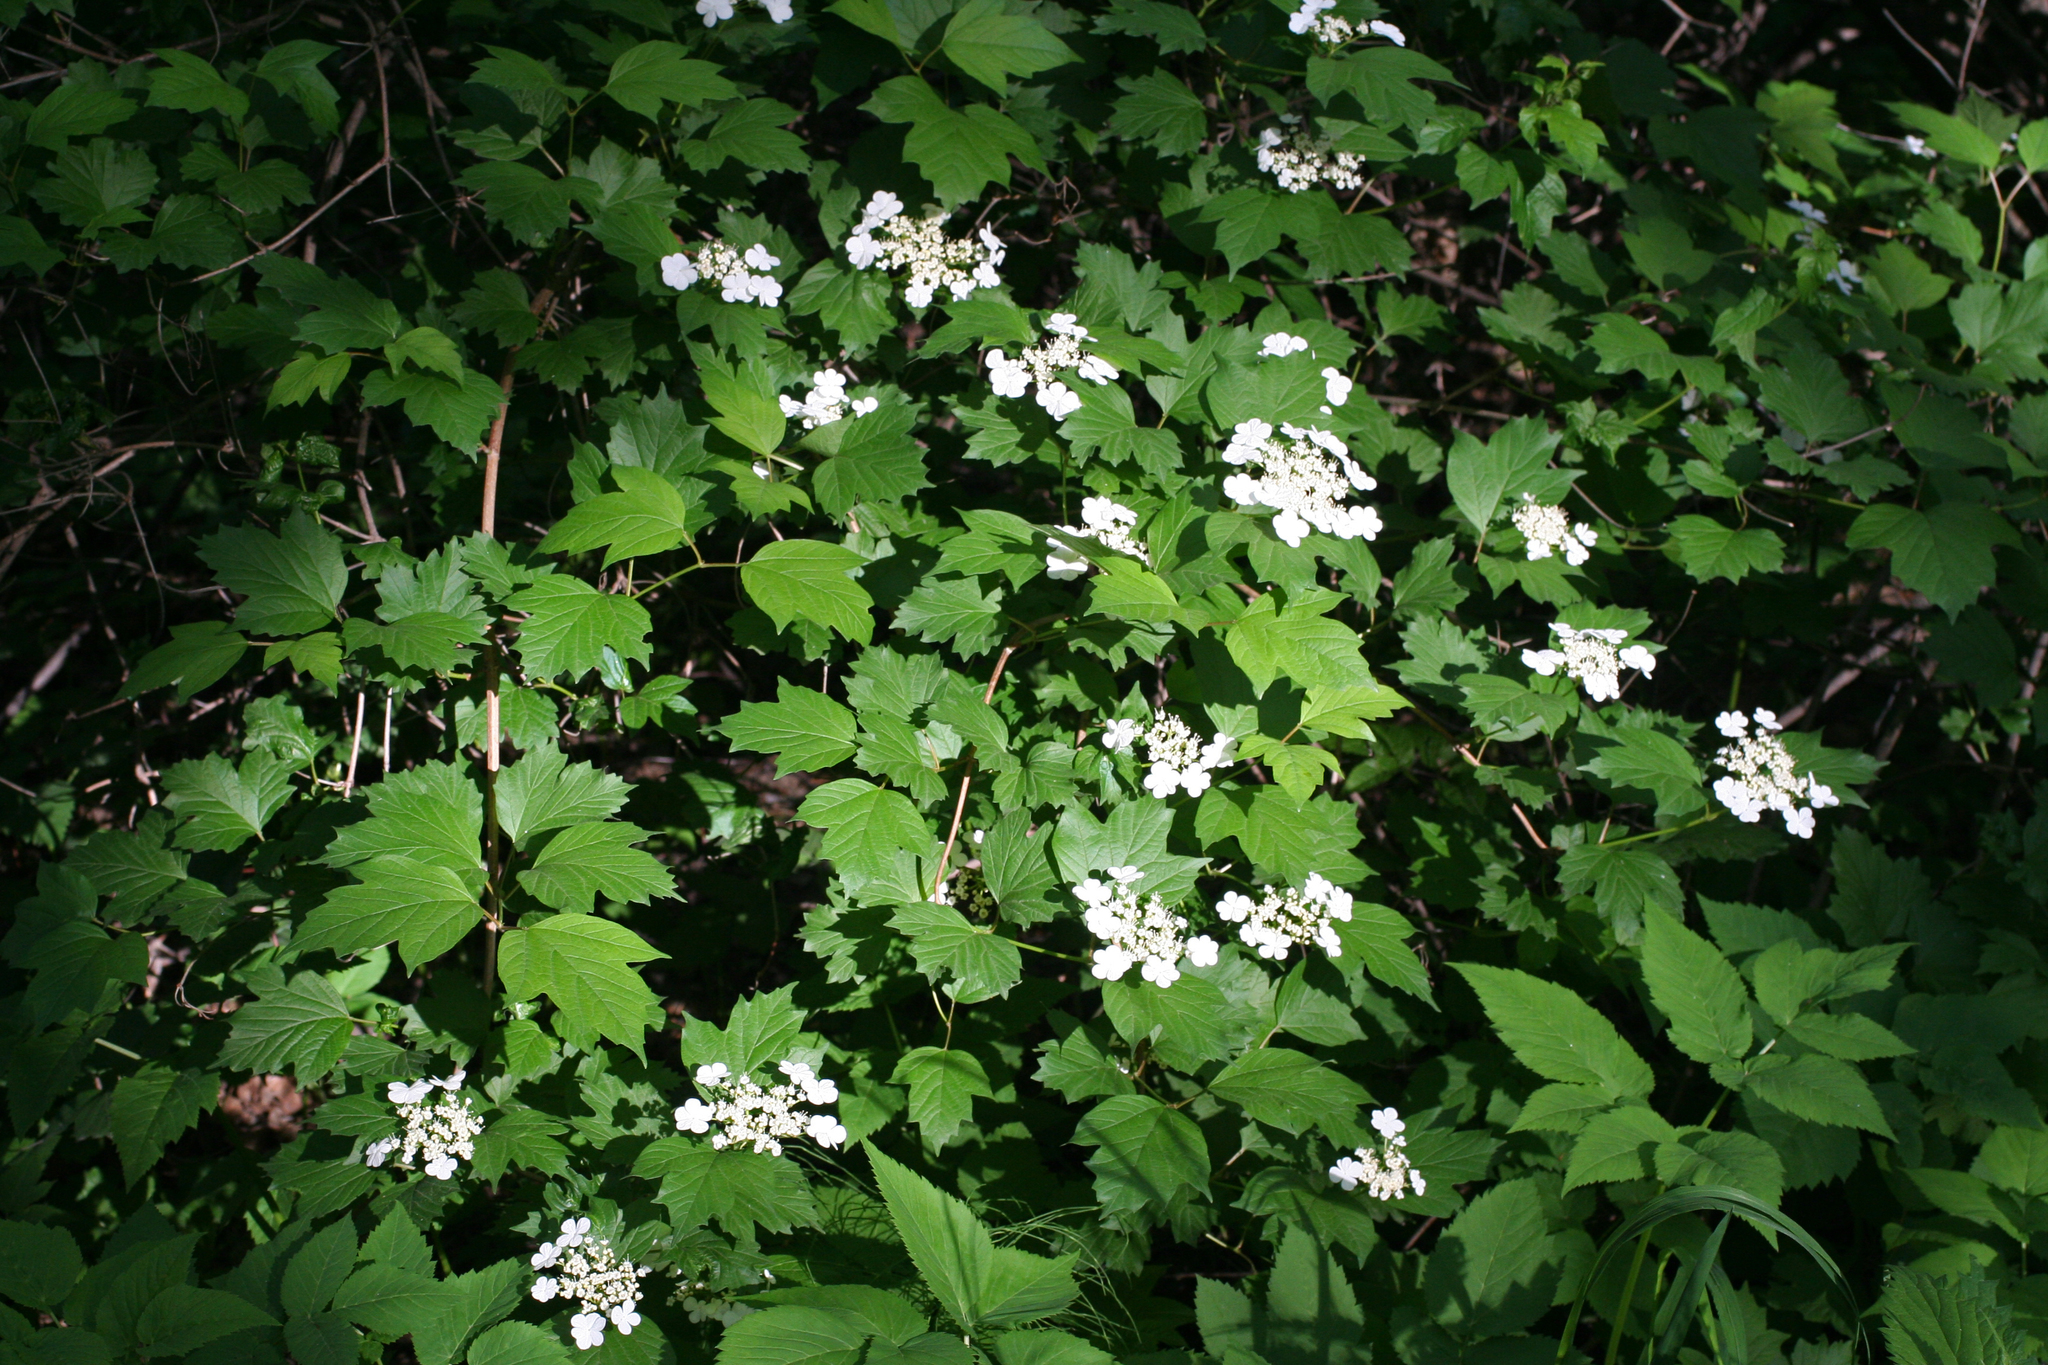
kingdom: Plantae
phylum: Tracheophyta
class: Magnoliopsida
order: Dipsacales
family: Viburnaceae
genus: Viburnum
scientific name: Viburnum opulus
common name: Guelder-rose
